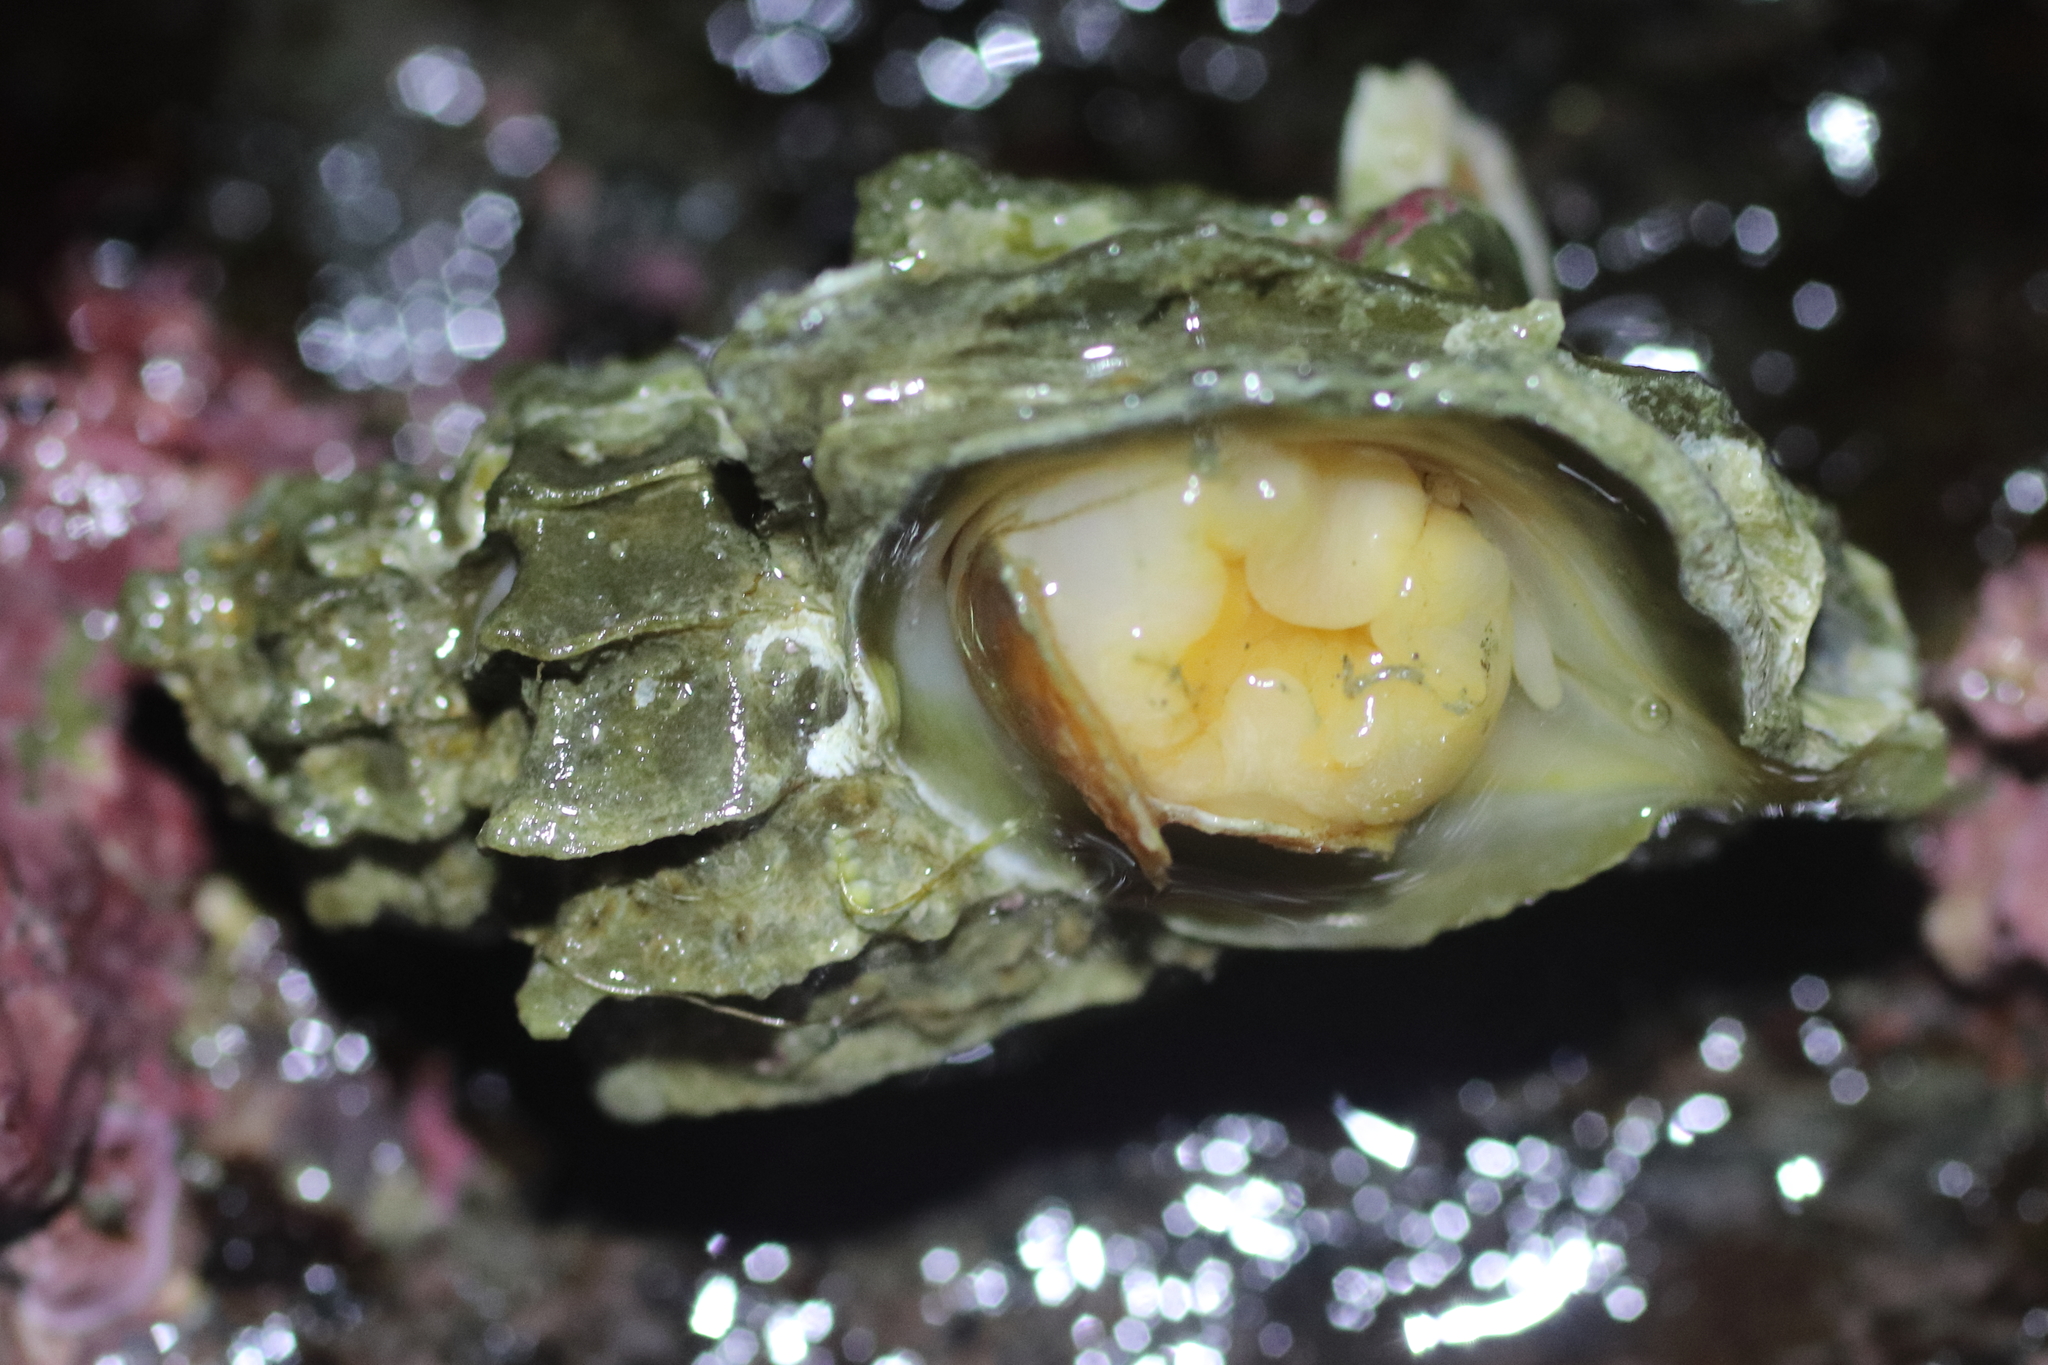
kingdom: Animalia
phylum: Mollusca
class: Gastropoda
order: Neogastropoda
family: Muricidae
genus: Scabrotrophon
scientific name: Scabrotrophon stuarti
